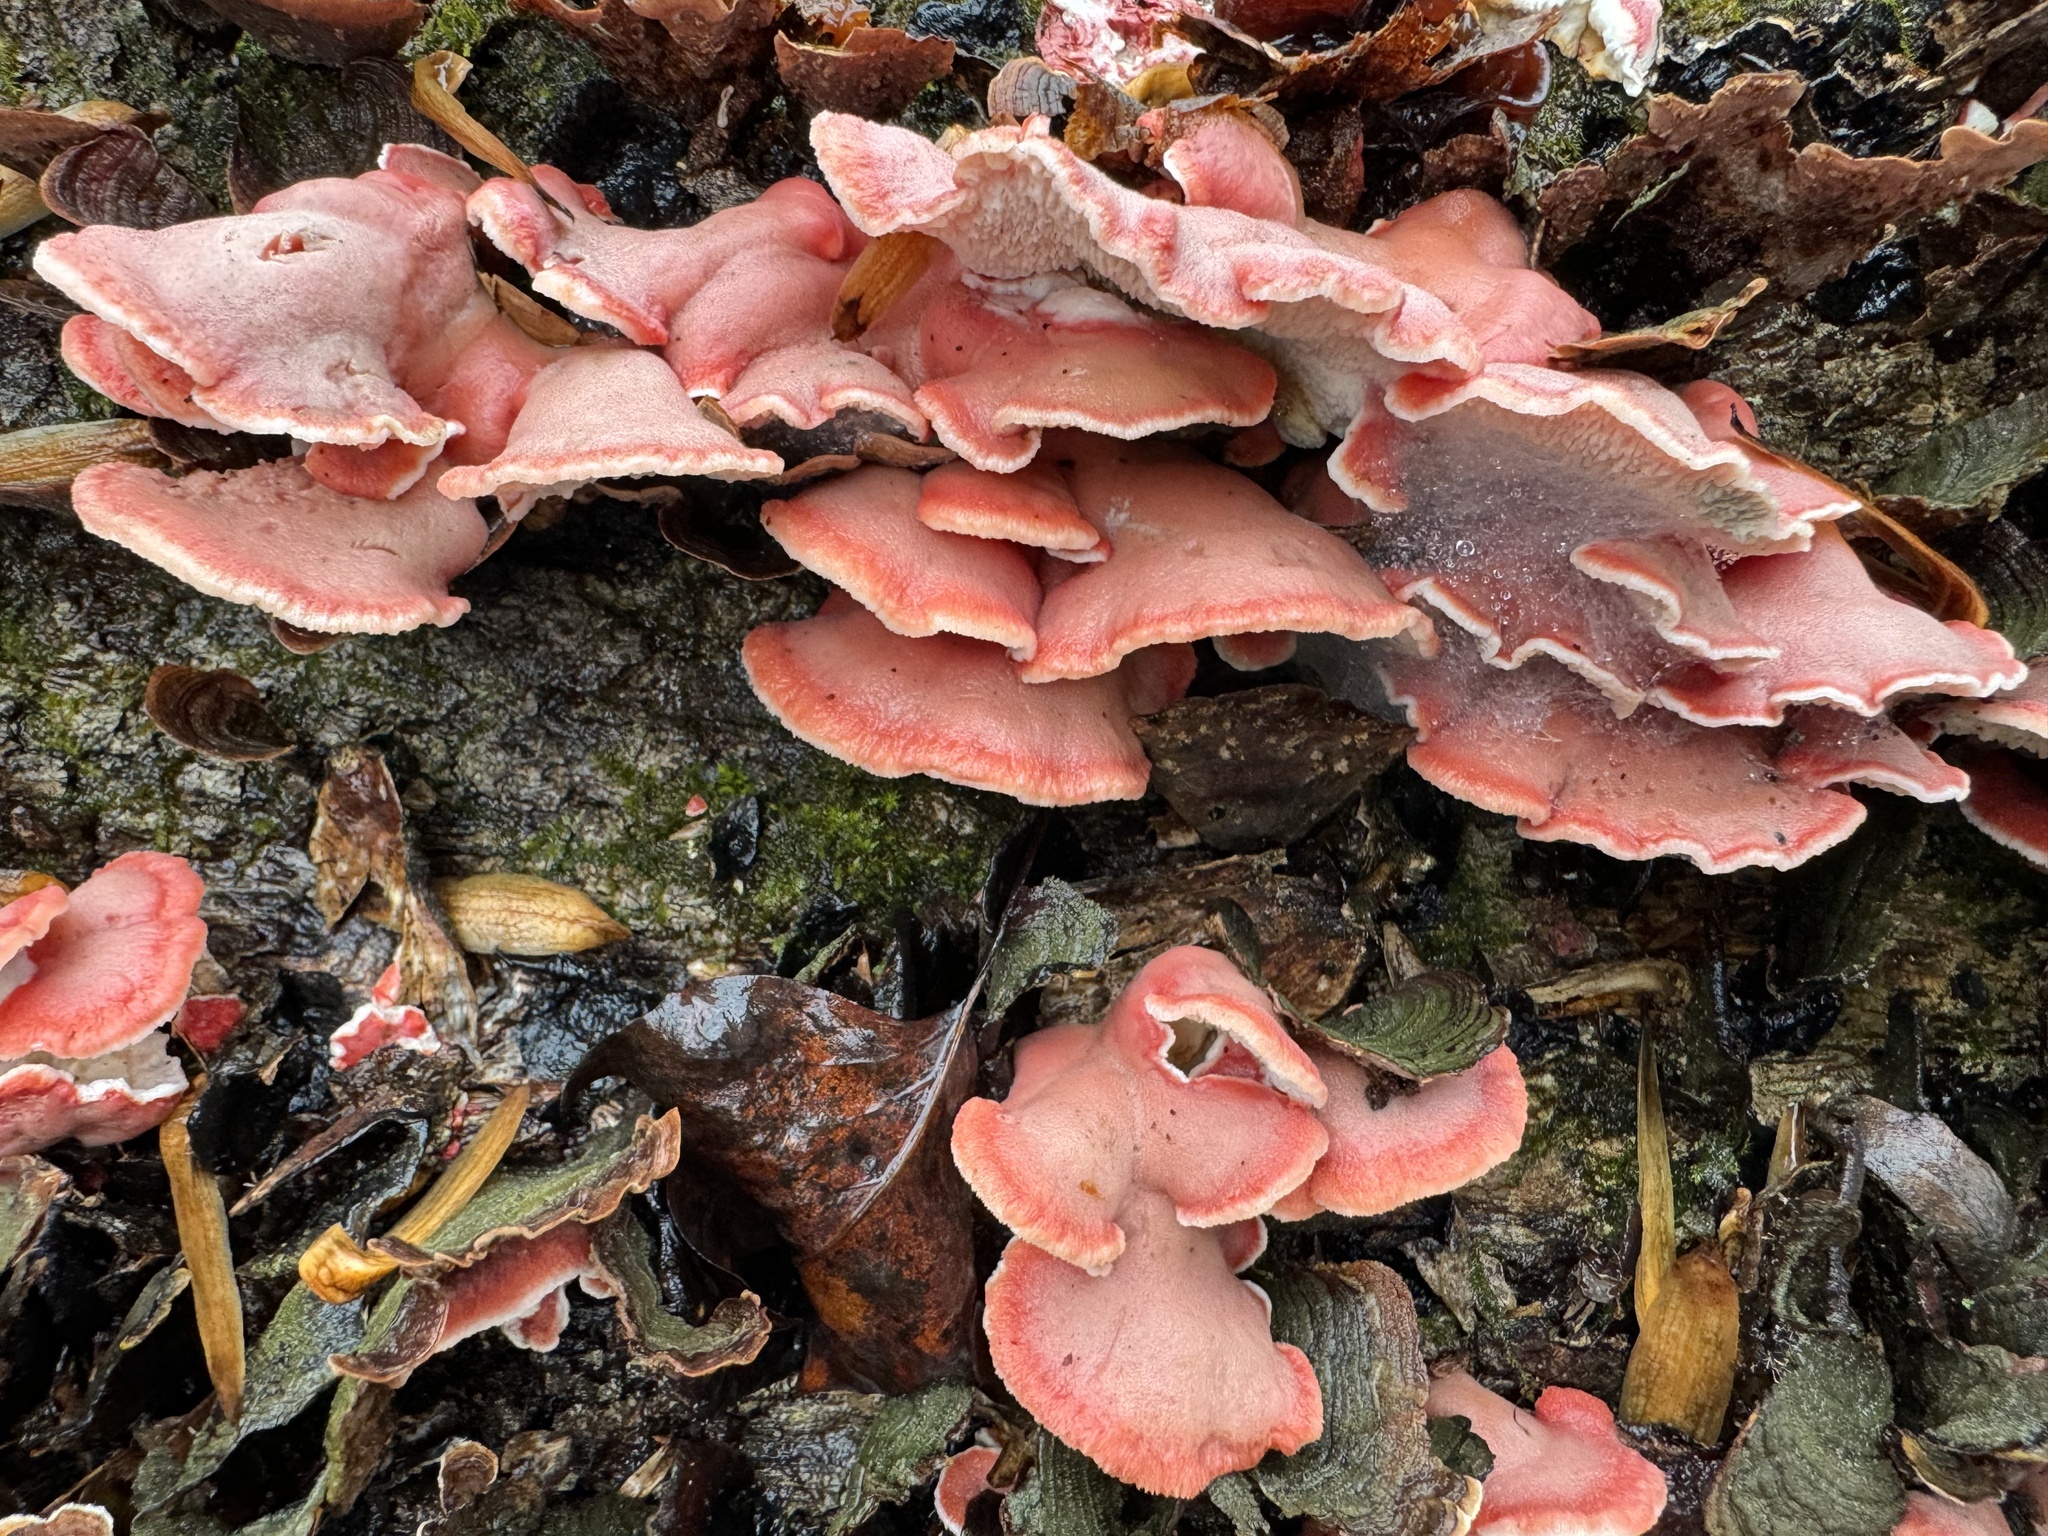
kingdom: Fungi
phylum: Basidiomycota
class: Agaricomycetes
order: Polyporales
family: Irpicaceae
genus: Byssomerulius
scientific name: Byssomerulius incarnatus
